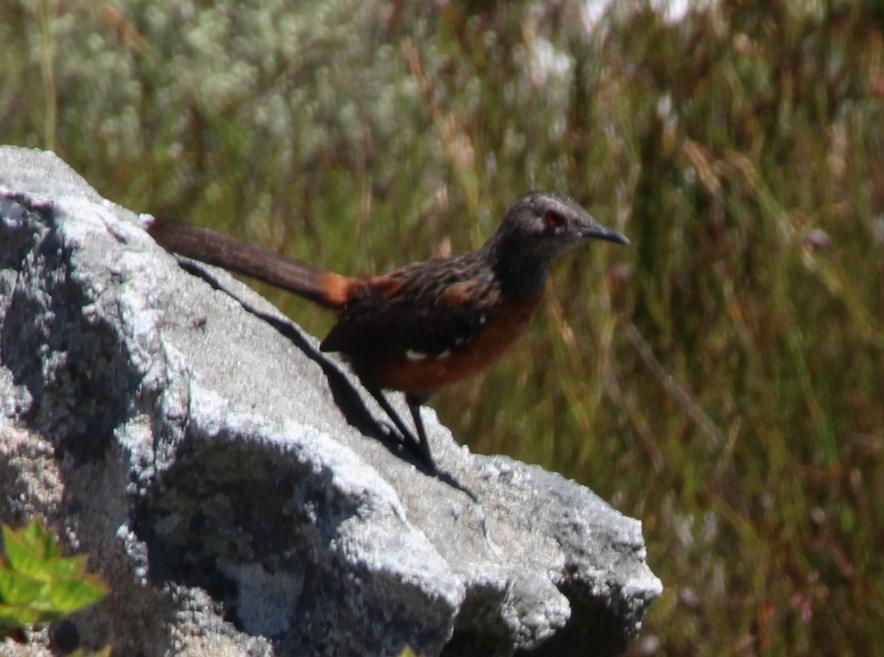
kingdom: Animalia
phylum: Chordata
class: Aves
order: Passeriformes
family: Chaetopidae
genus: Chaetops
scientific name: Chaetops frenatus
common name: Cape rockjumper
